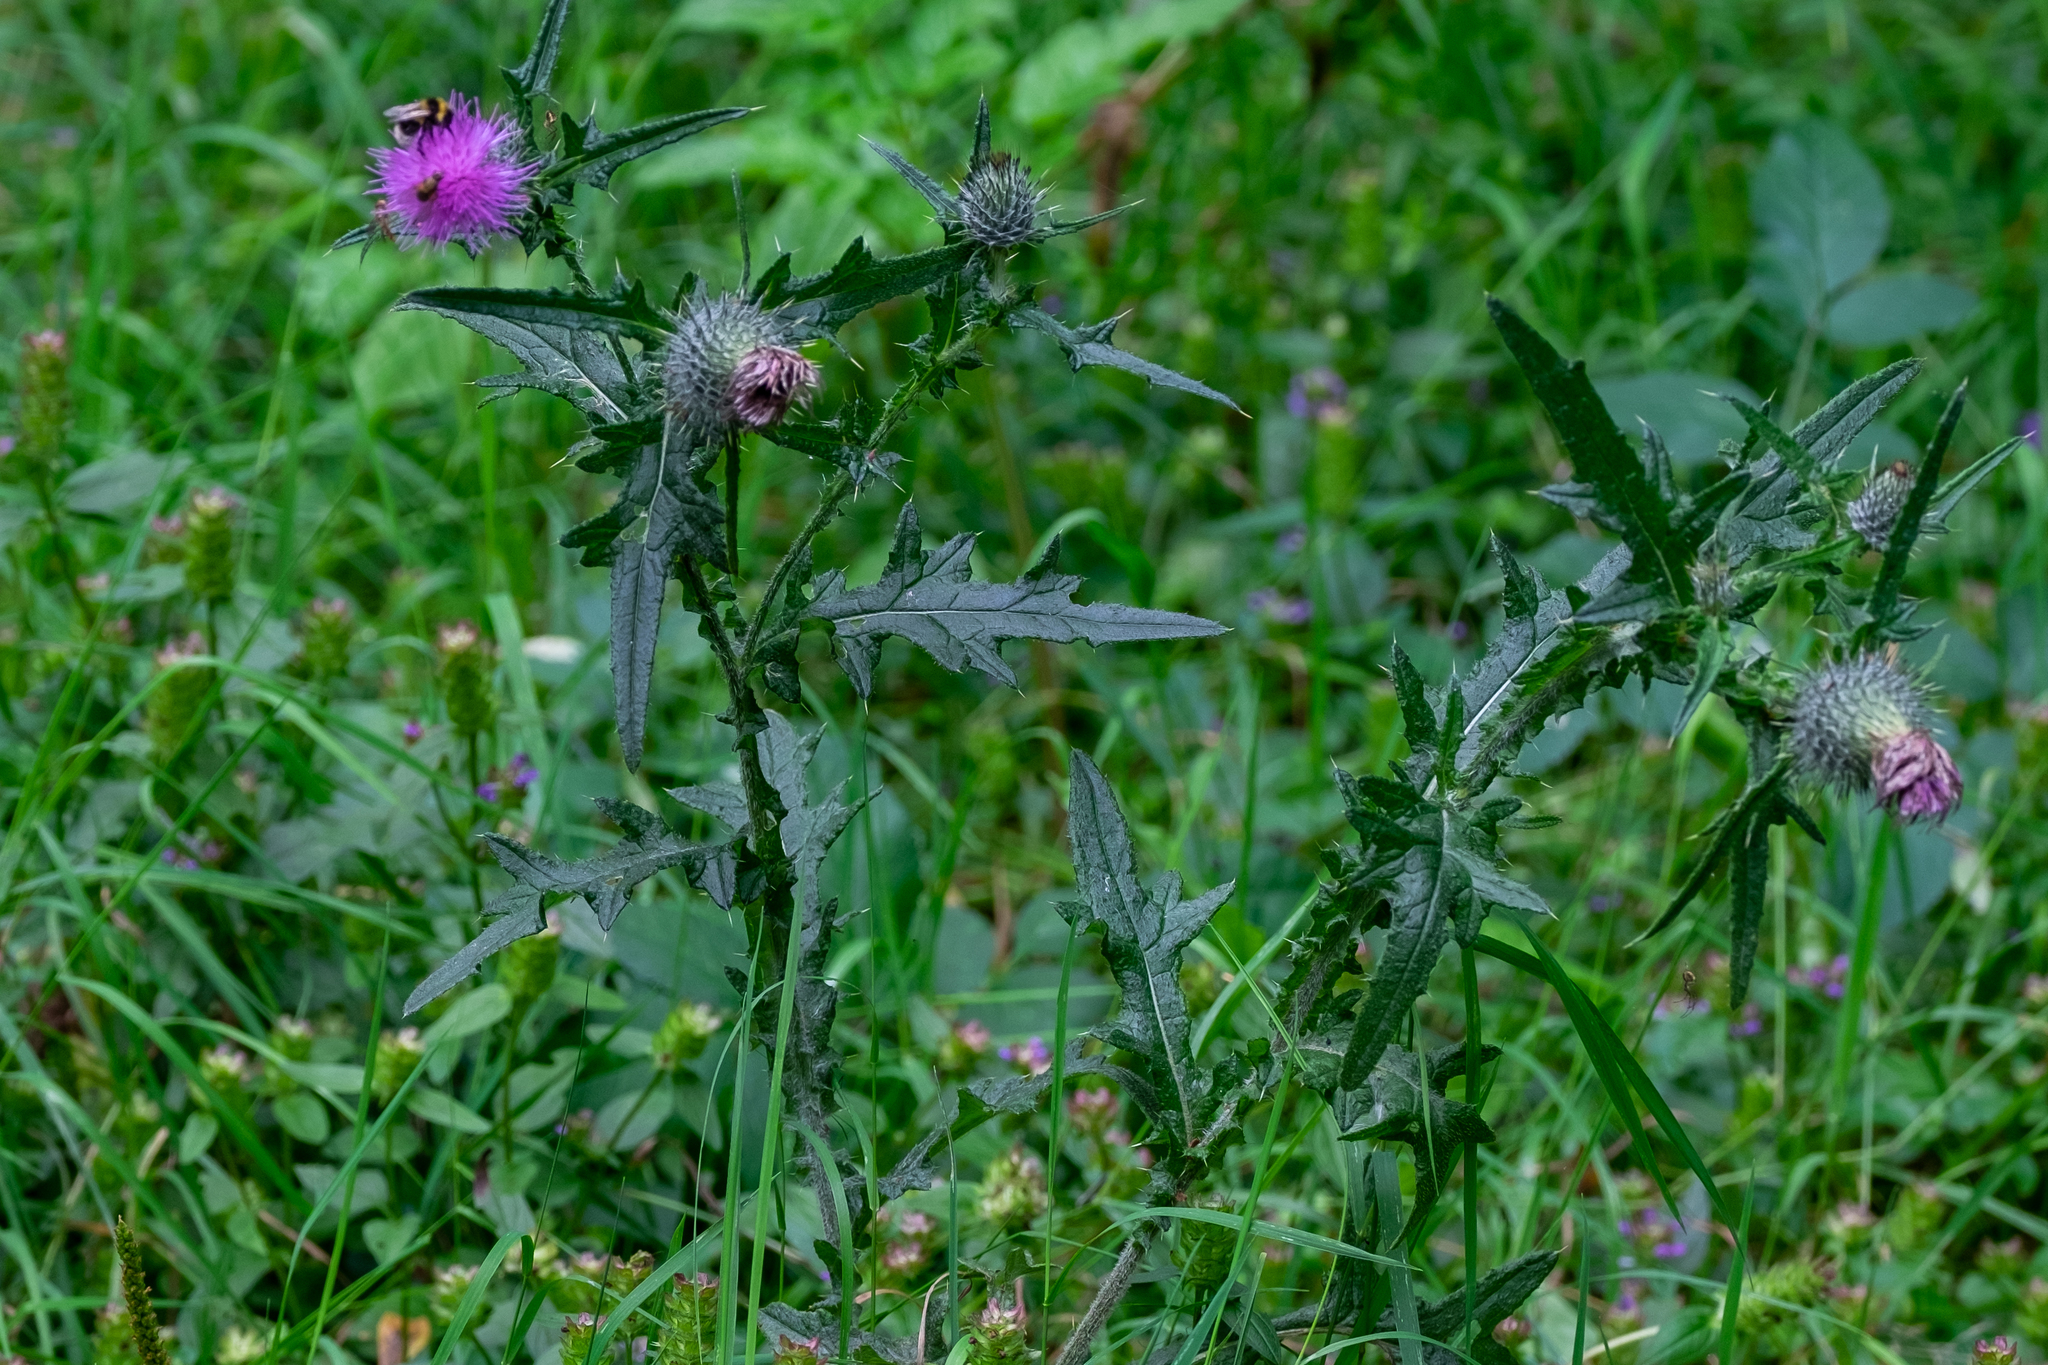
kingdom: Plantae
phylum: Tracheophyta
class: Magnoliopsida
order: Asterales
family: Asteraceae
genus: Cirsium
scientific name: Cirsium vulgare
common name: Bull thistle
